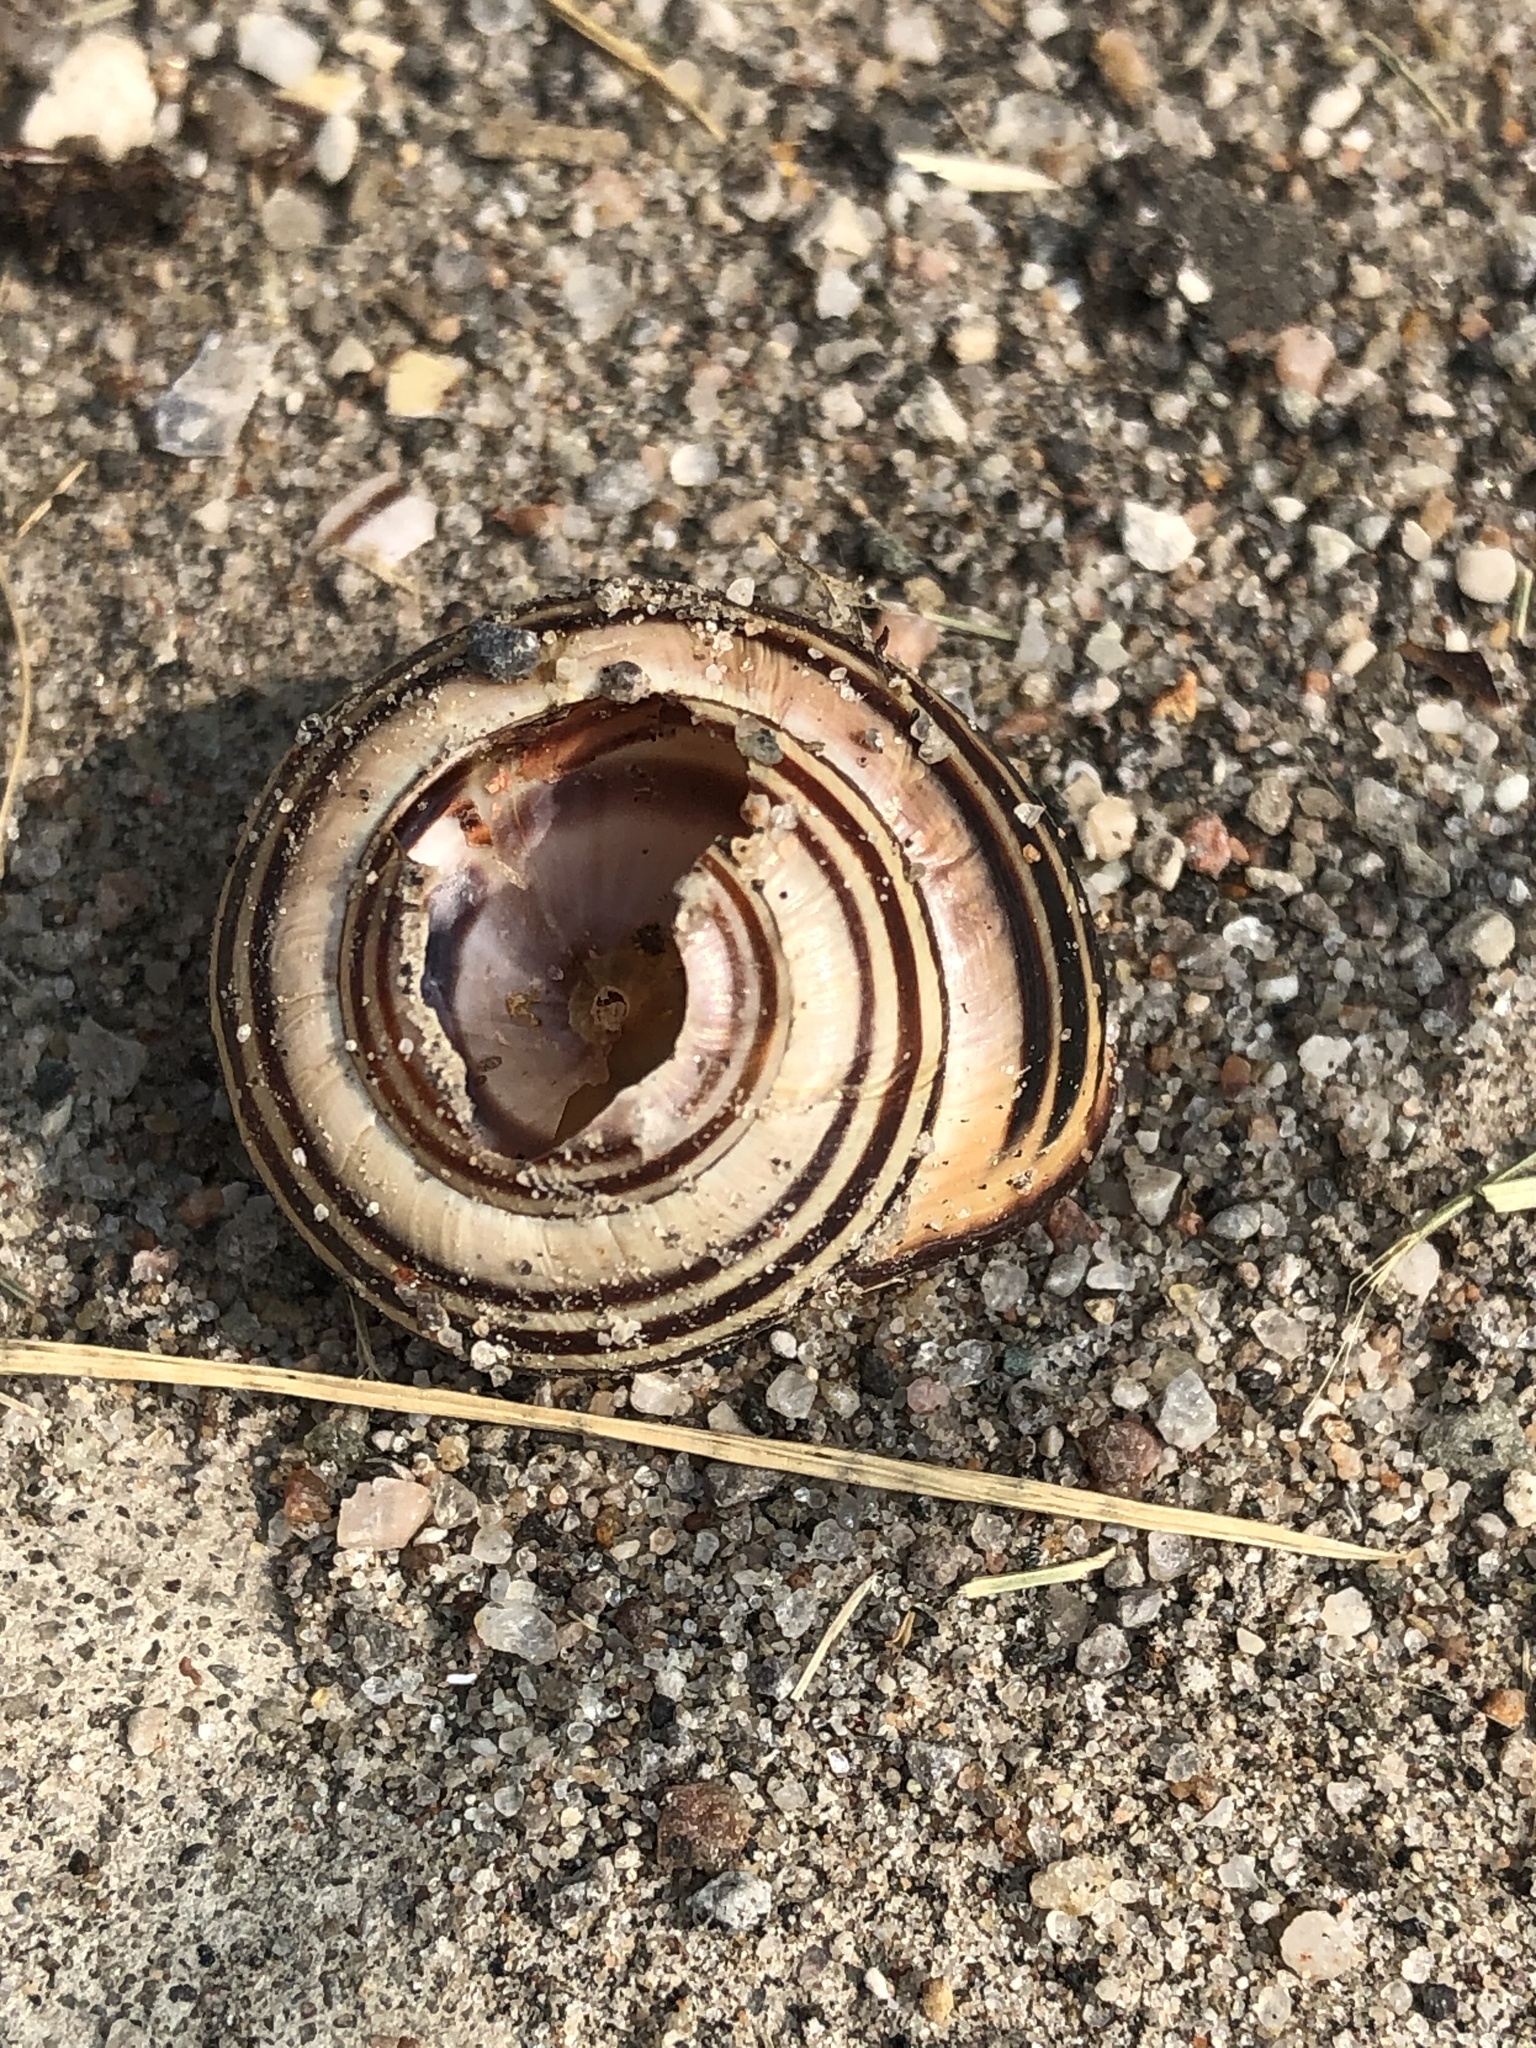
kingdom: Animalia
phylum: Mollusca
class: Gastropoda
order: Stylommatophora
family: Helicidae
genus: Cepaea
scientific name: Cepaea nemoralis
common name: Grovesnail
